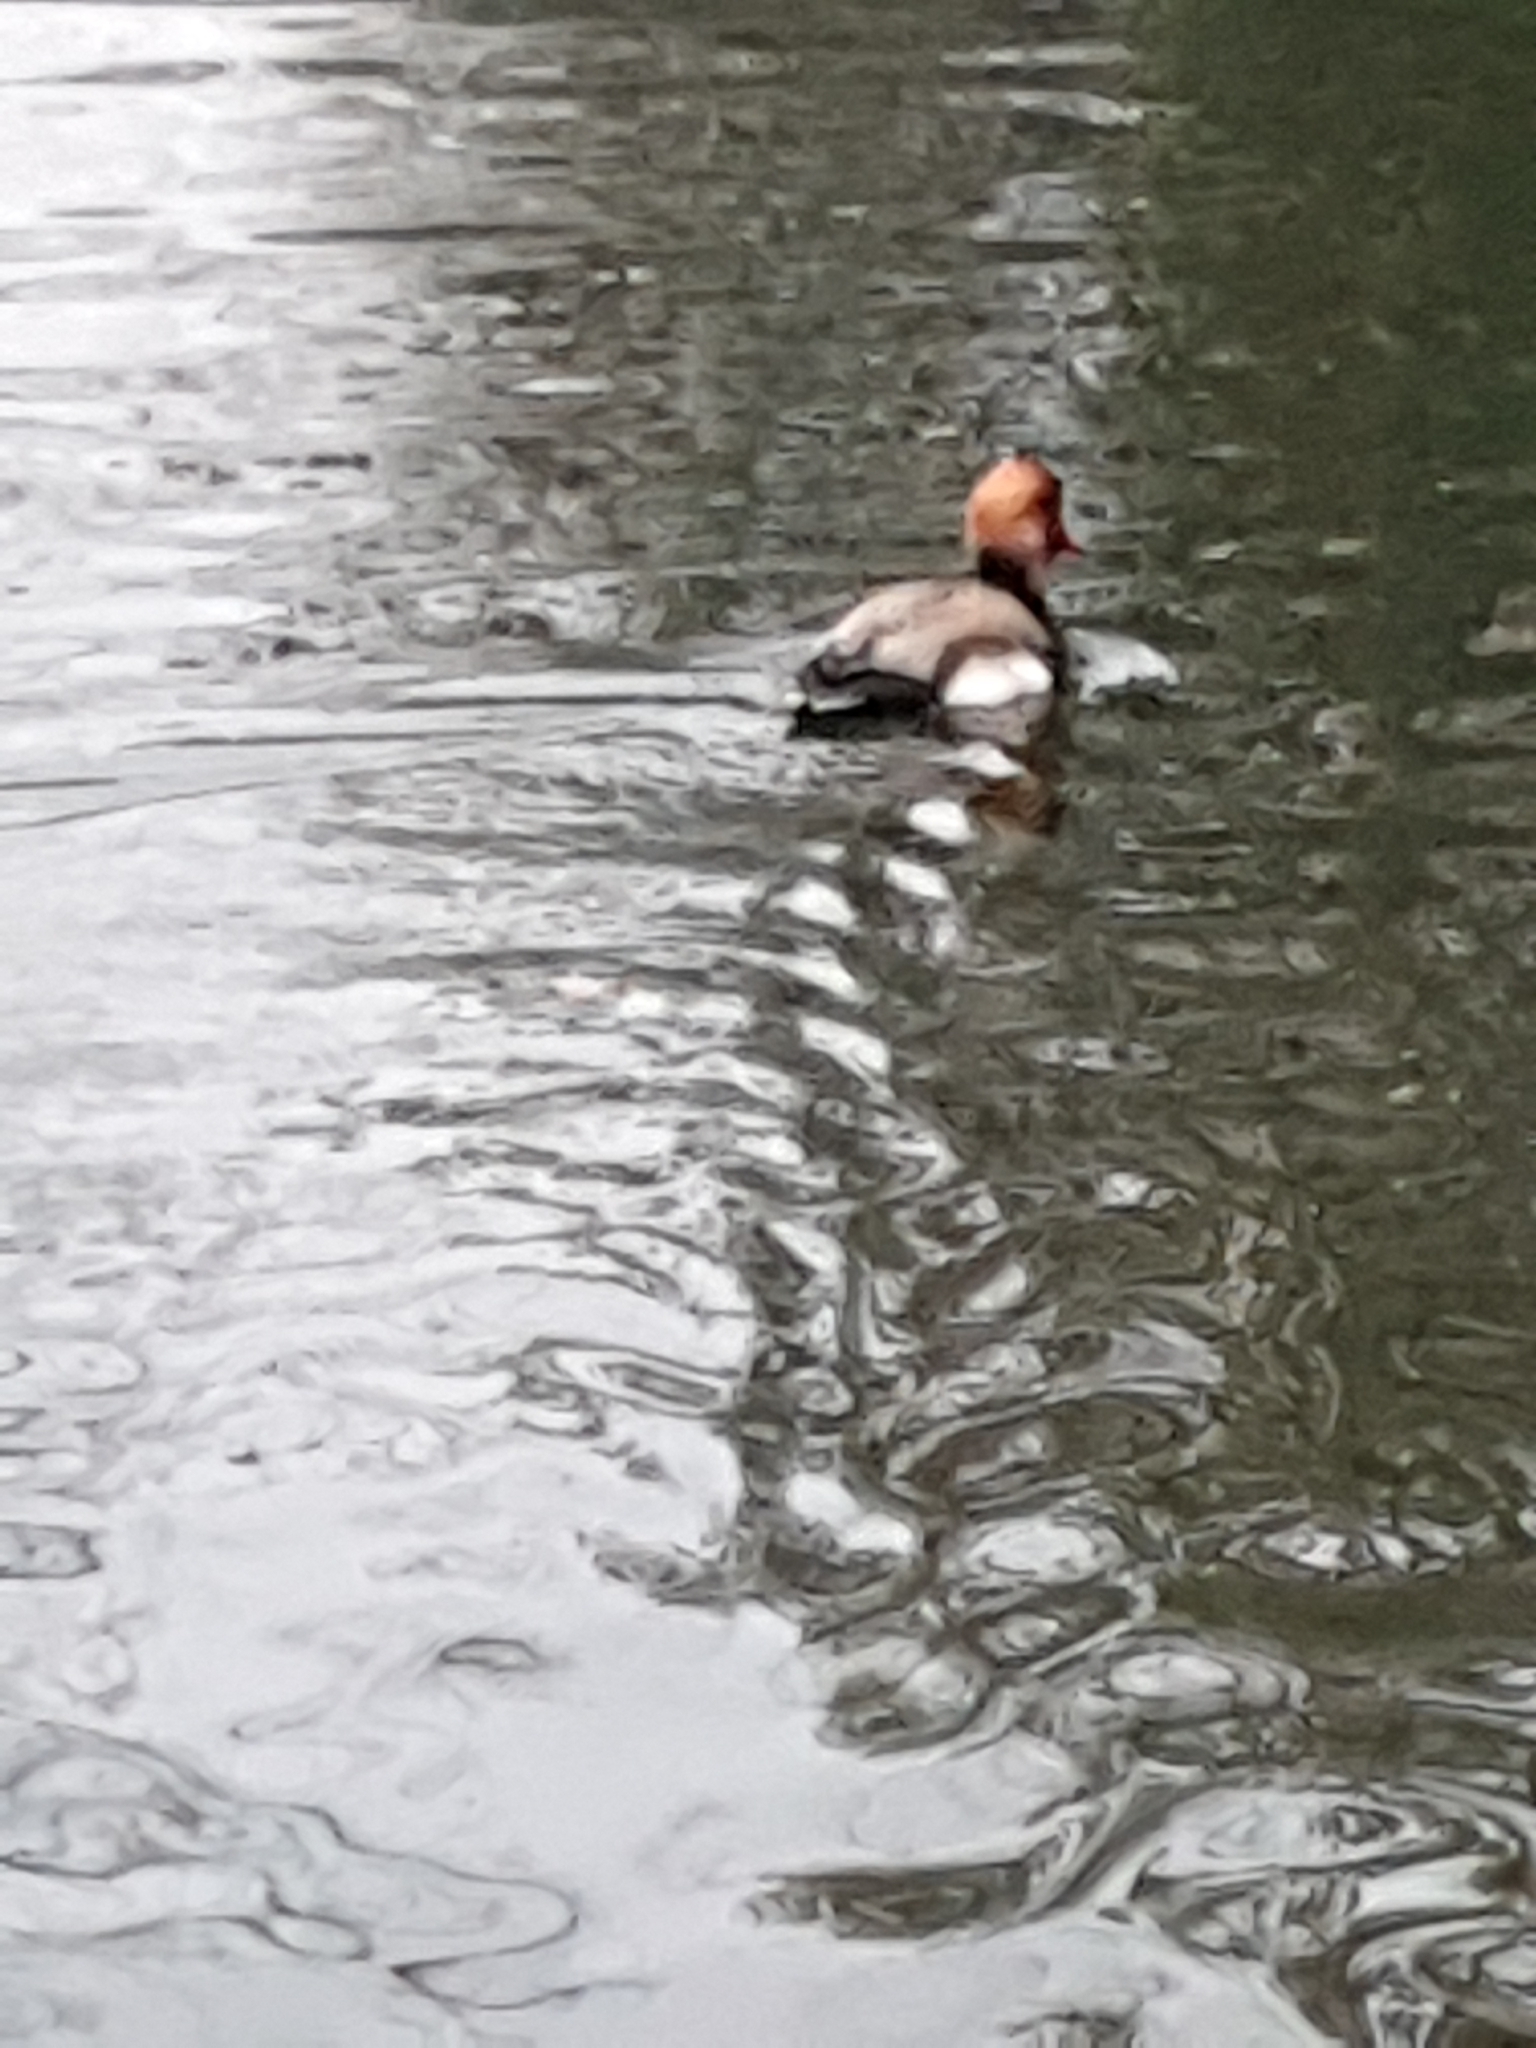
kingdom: Animalia
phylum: Chordata
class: Aves
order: Anseriformes
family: Anatidae
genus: Netta
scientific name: Netta rufina
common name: Red-crested pochard
